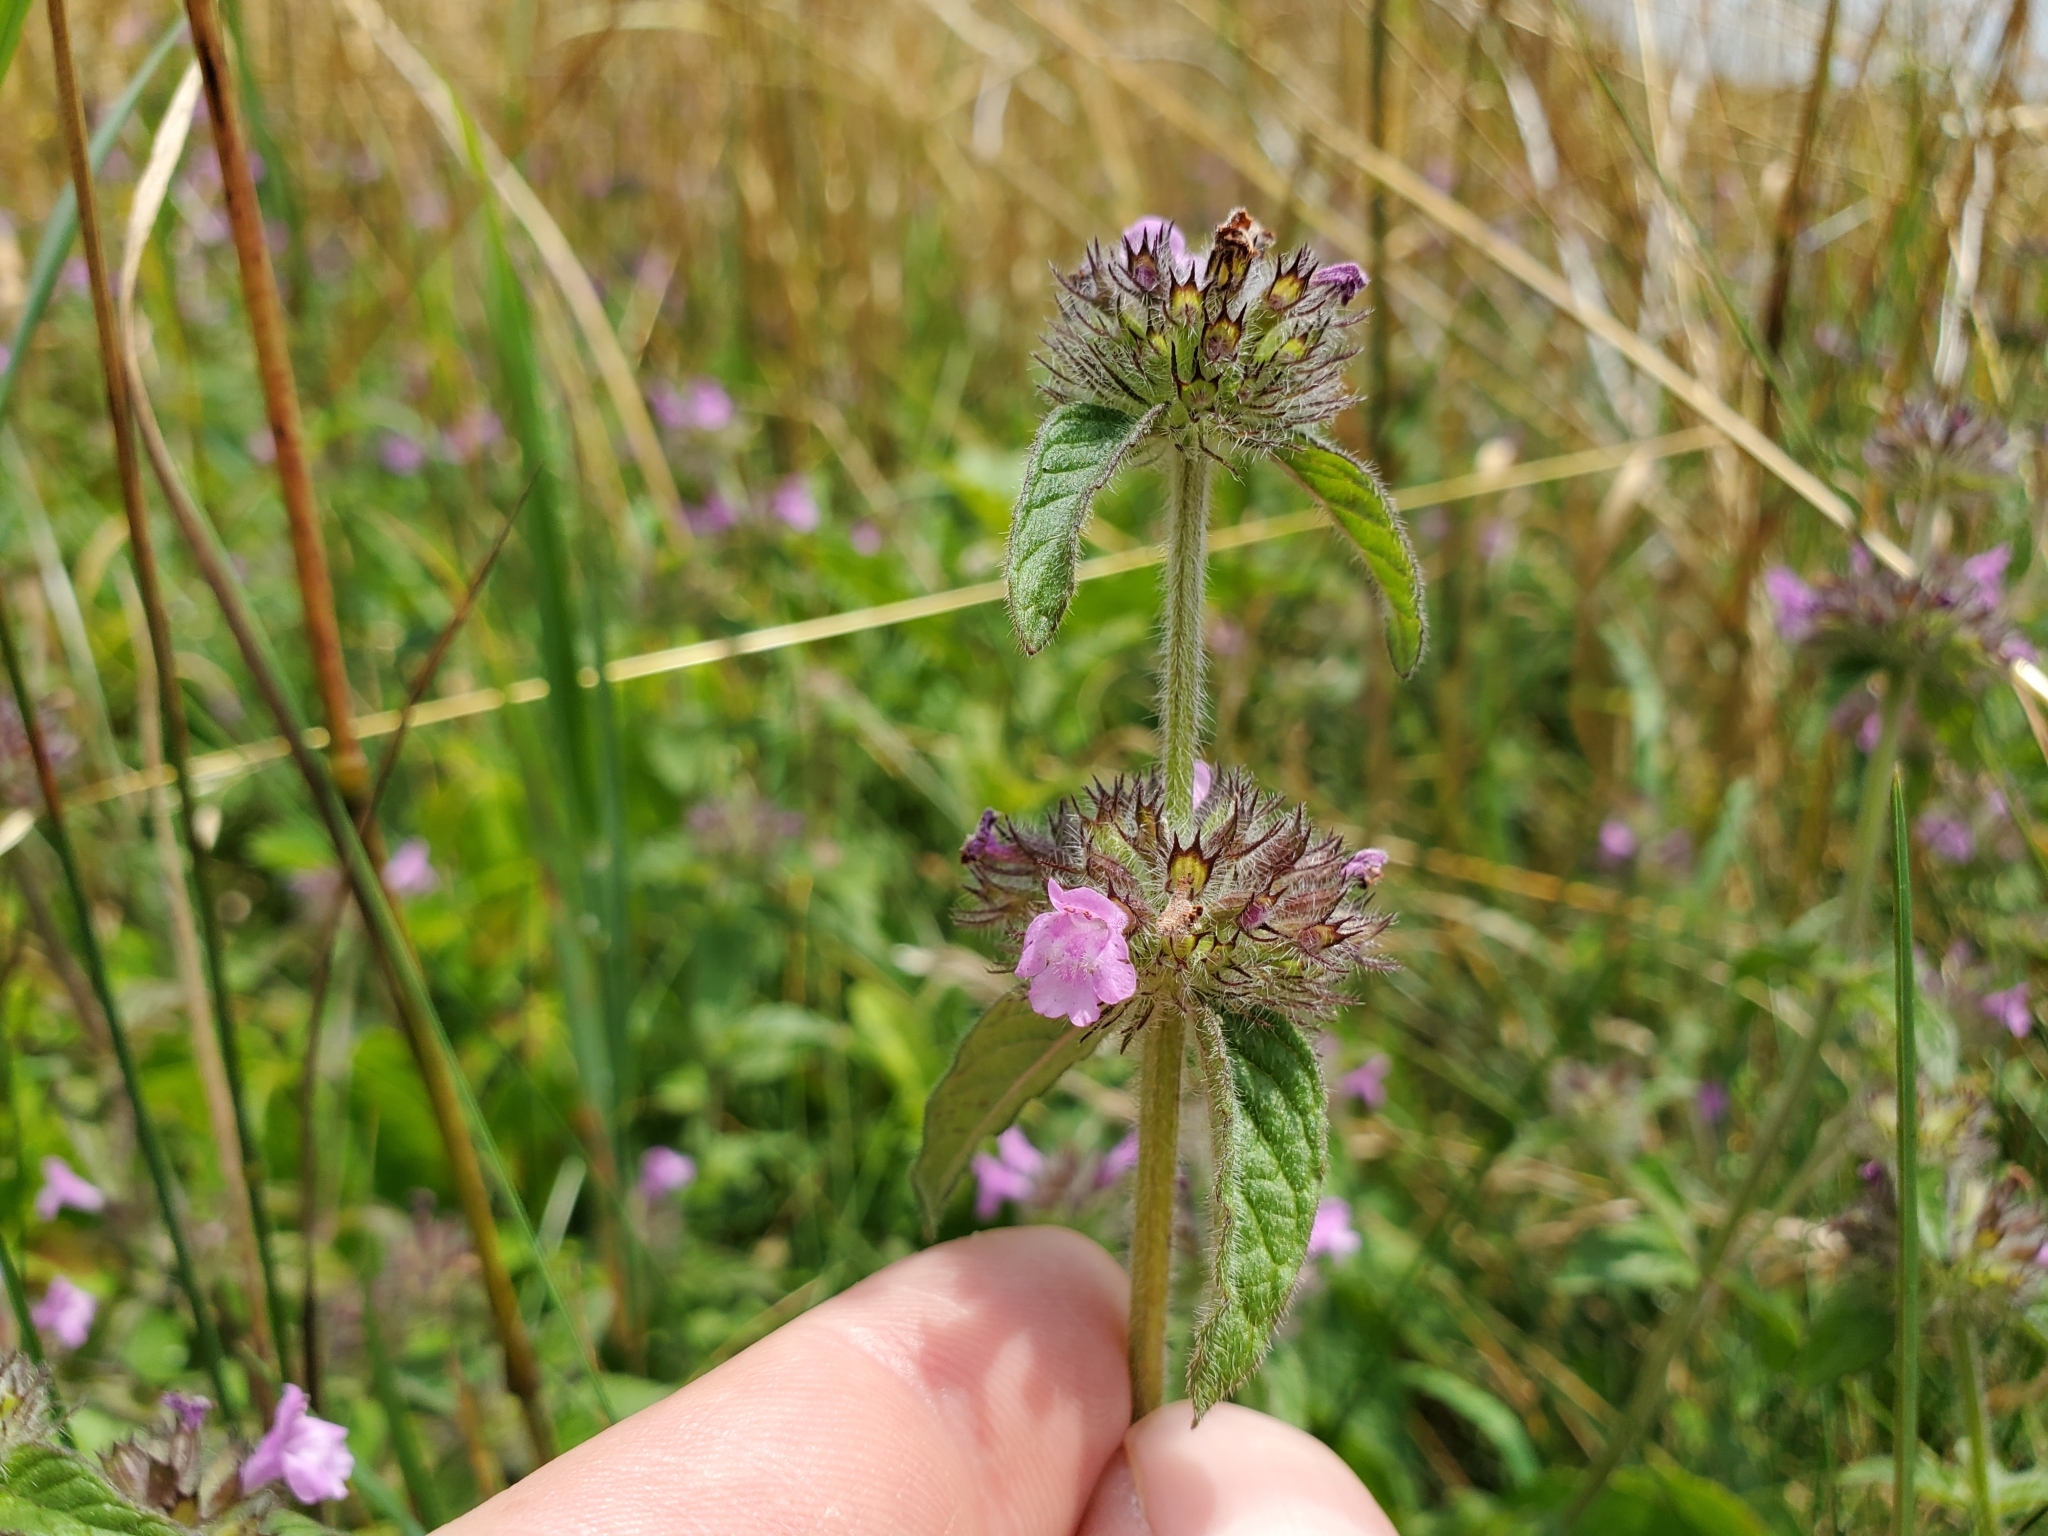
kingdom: Plantae
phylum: Tracheophyta
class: Magnoliopsida
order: Lamiales
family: Lamiaceae
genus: Clinopodium
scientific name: Clinopodium vulgare
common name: Wild basil
